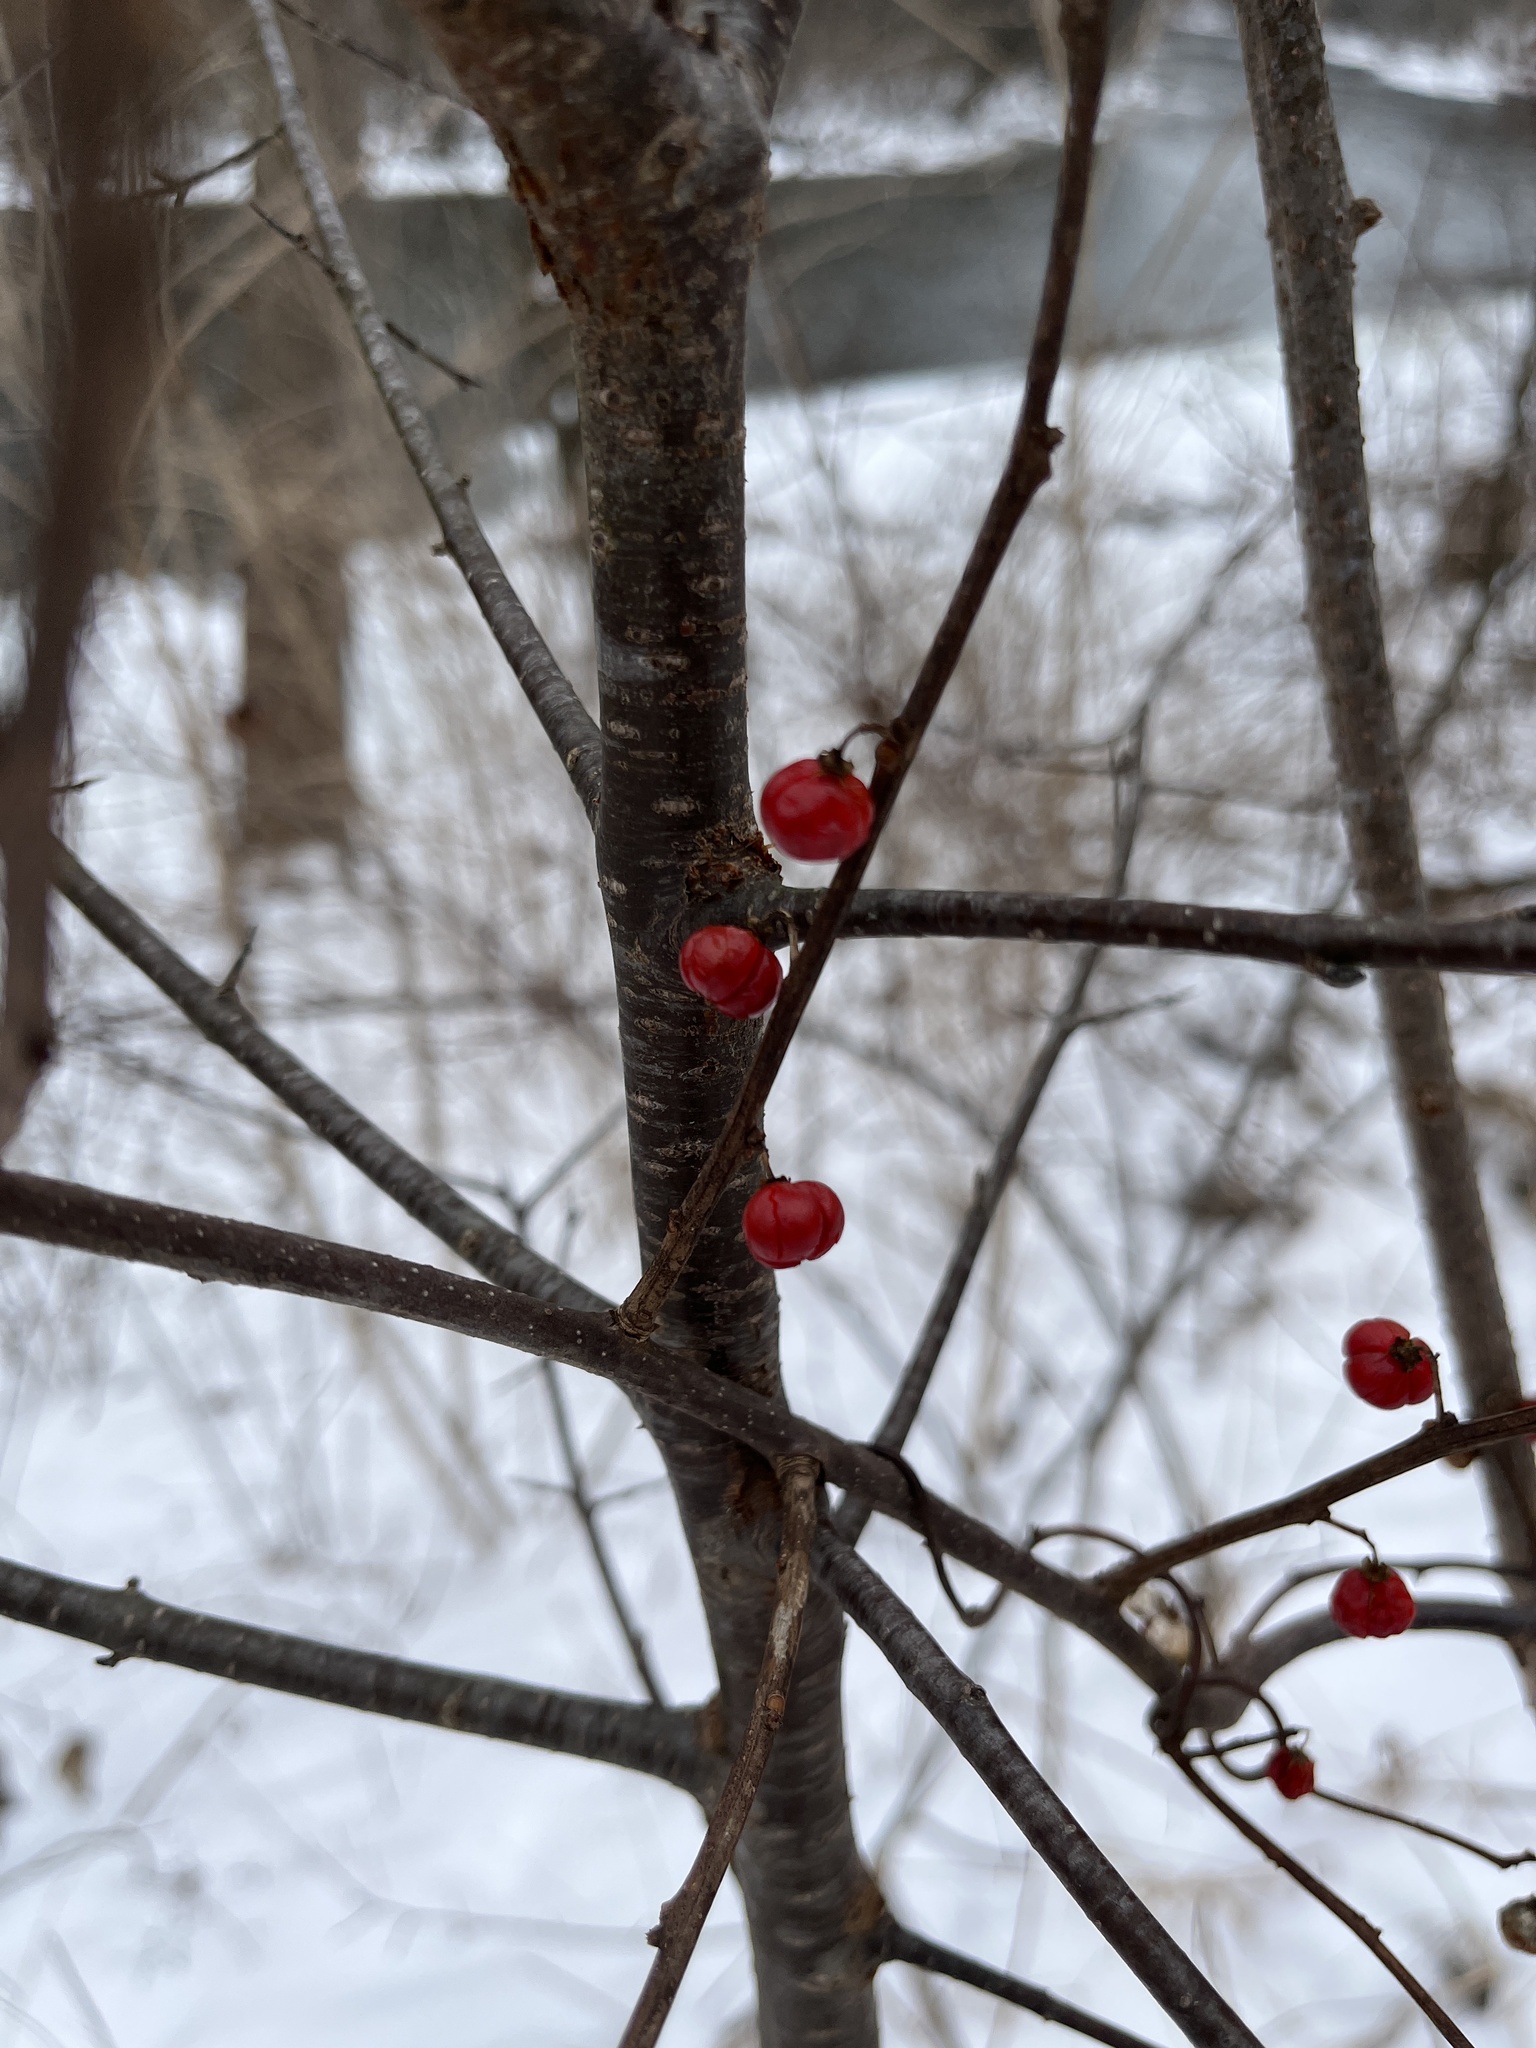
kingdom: Plantae
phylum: Tracheophyta
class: Magnoliopsida
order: Celastrales
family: Celastraceae
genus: Celastrus
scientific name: Celastrus orbiculatus
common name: Oriental bittersweet
